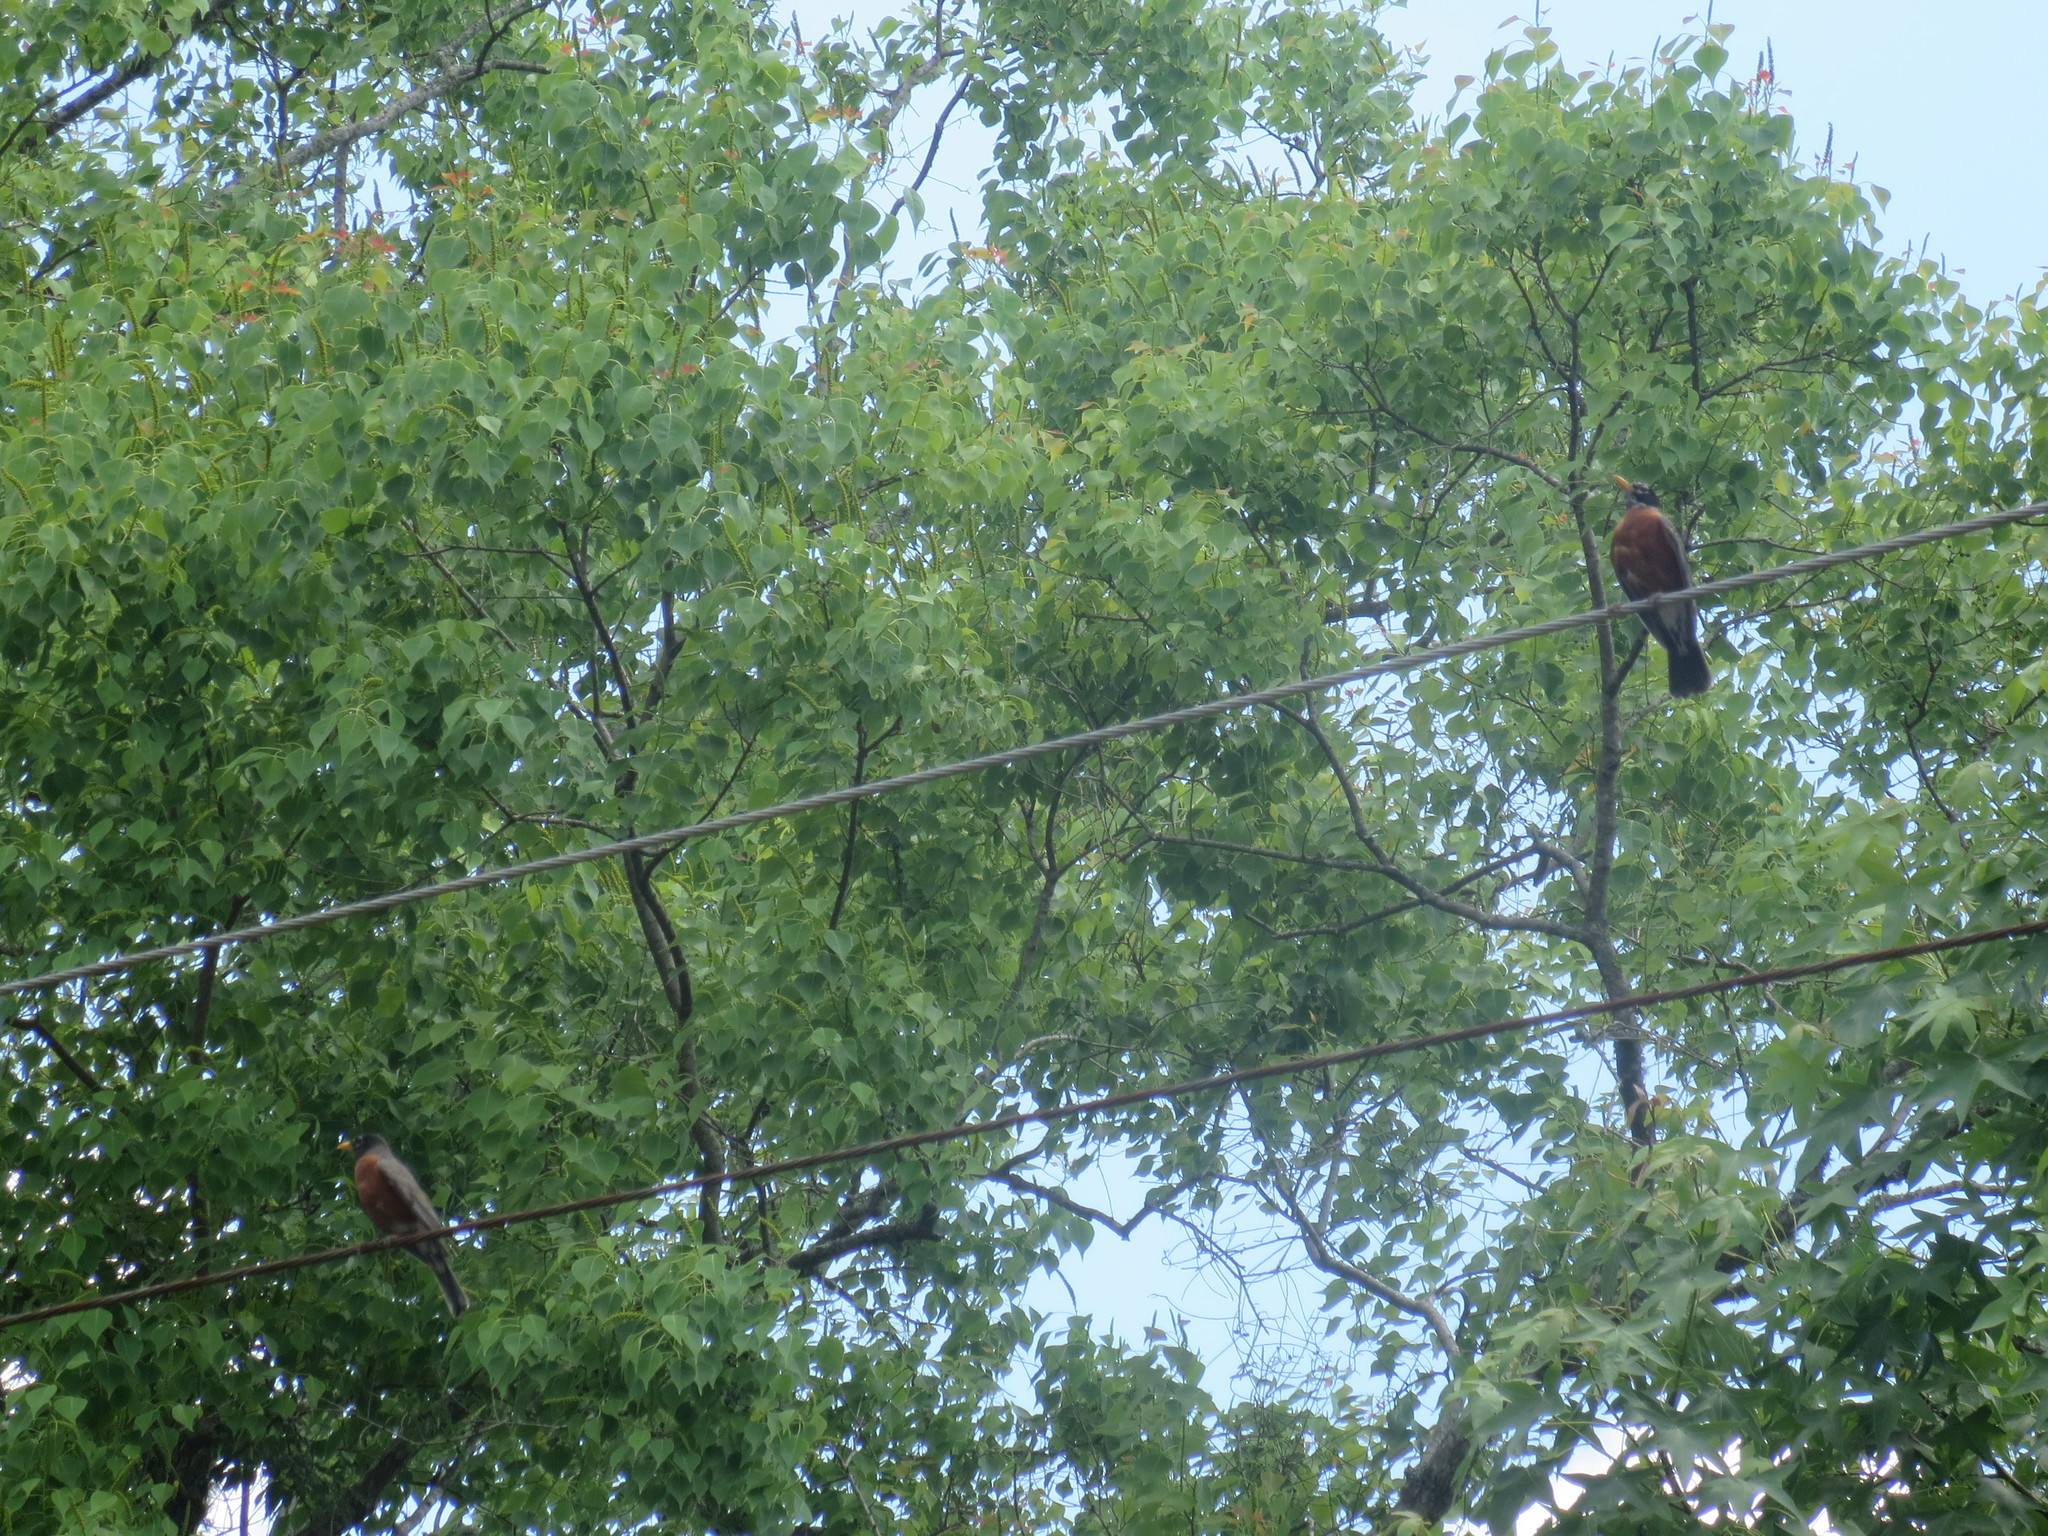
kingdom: Animalia
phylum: Chordata
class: Aves
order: Passeriformes
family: Turdidae
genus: Turdus
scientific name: Turdus migratorius
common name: American robin
